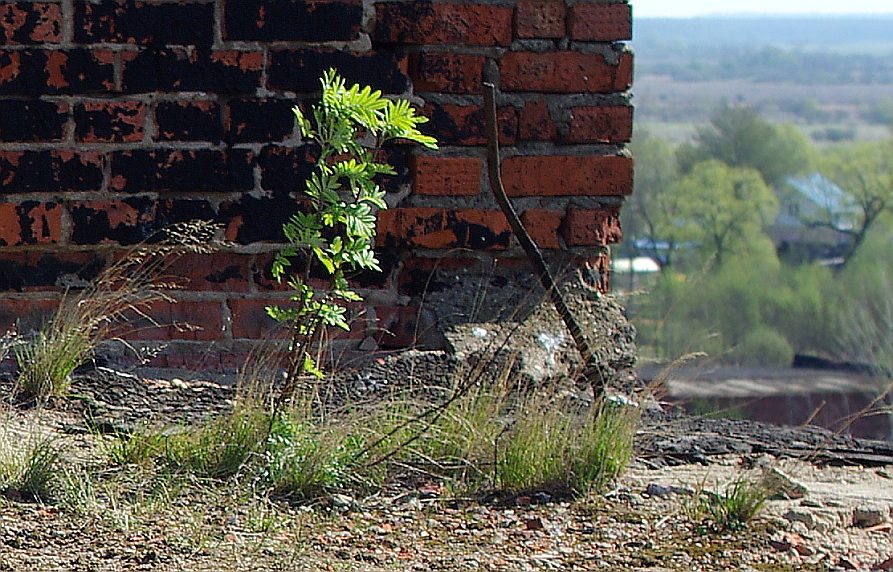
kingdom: Plantae
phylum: Tracheophyta
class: Magnoliopsida
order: Rosales
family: Rosaceae
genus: Sorbus
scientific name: Sorbus aucuparia
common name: Rowan
